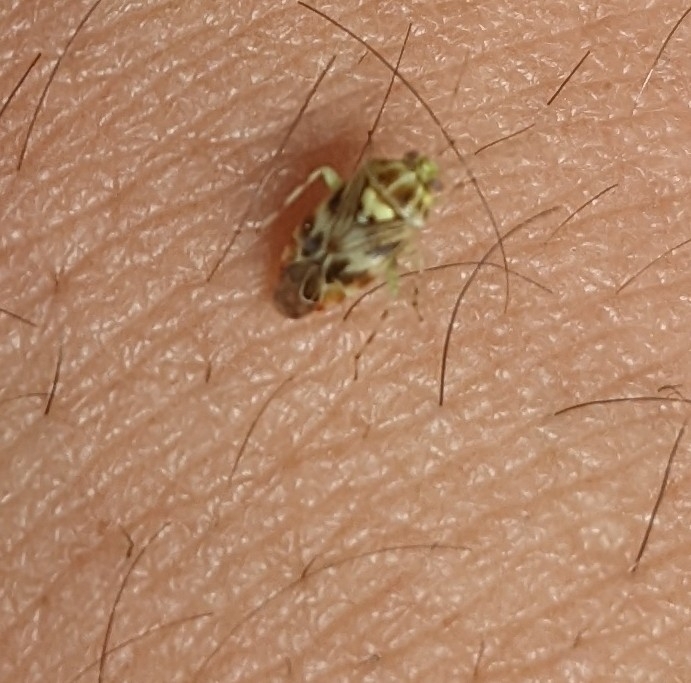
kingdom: Animalia
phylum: Arthropoda
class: Insecta
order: Hemiptera
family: Miridae
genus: Tropidosteptes
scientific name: Tropidosteptes quercicola
